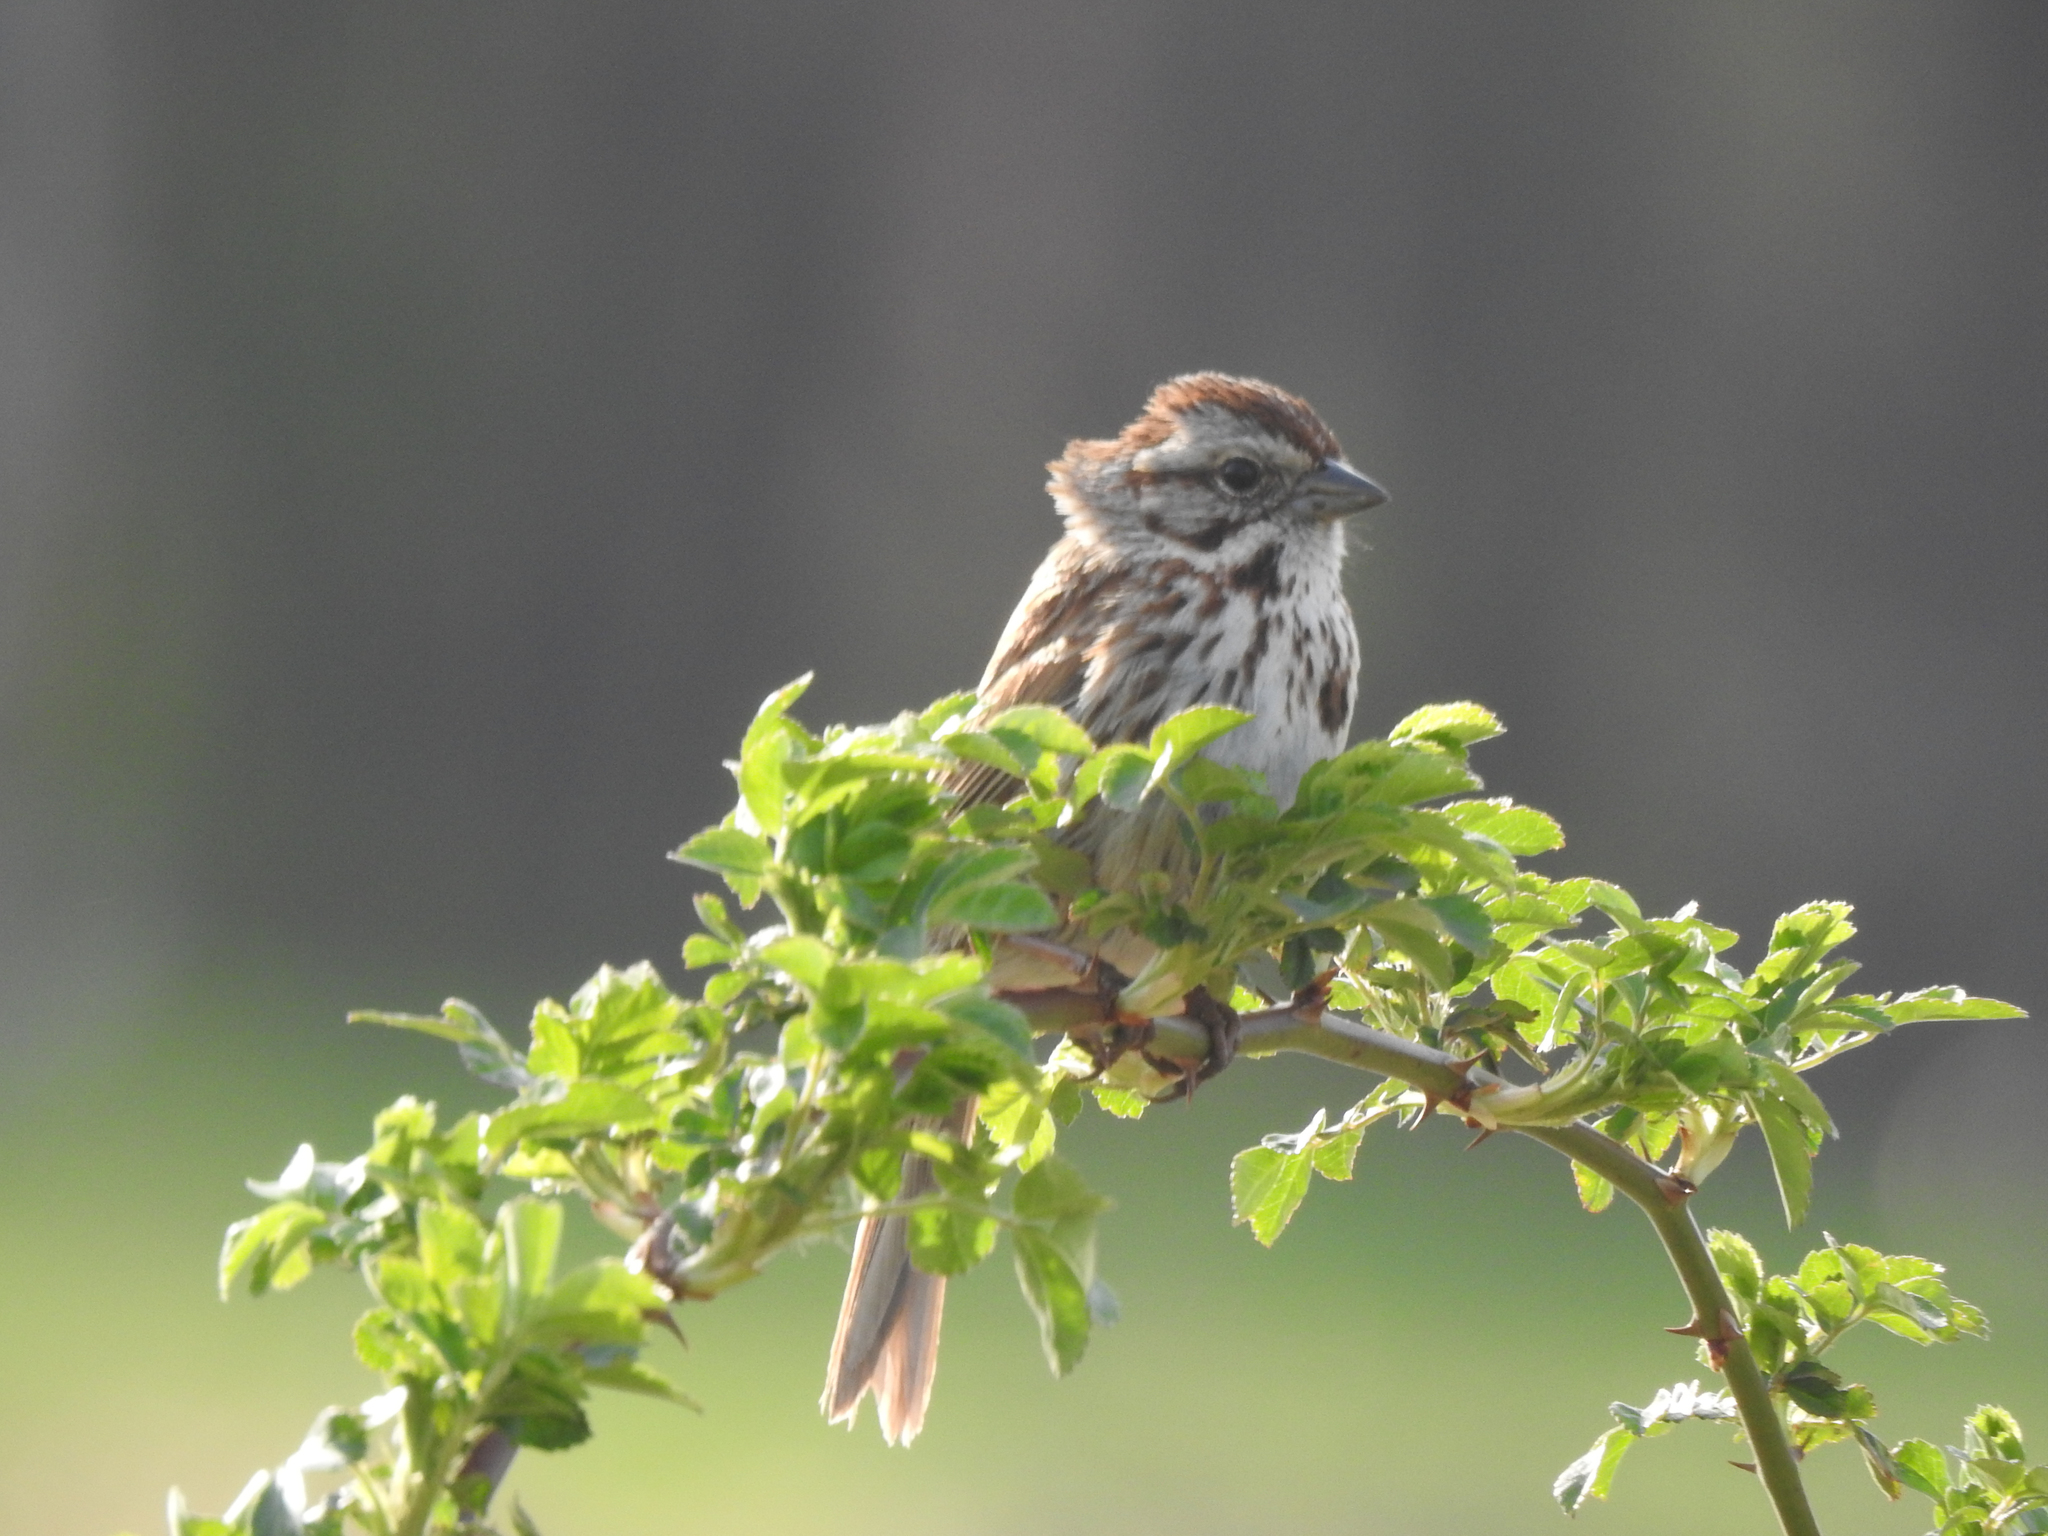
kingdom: Animalia
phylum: Chordata
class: Aves
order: Passeriformes
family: Passerellidae
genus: Melospiza
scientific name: Melospiza melodia
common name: Song sparrow
